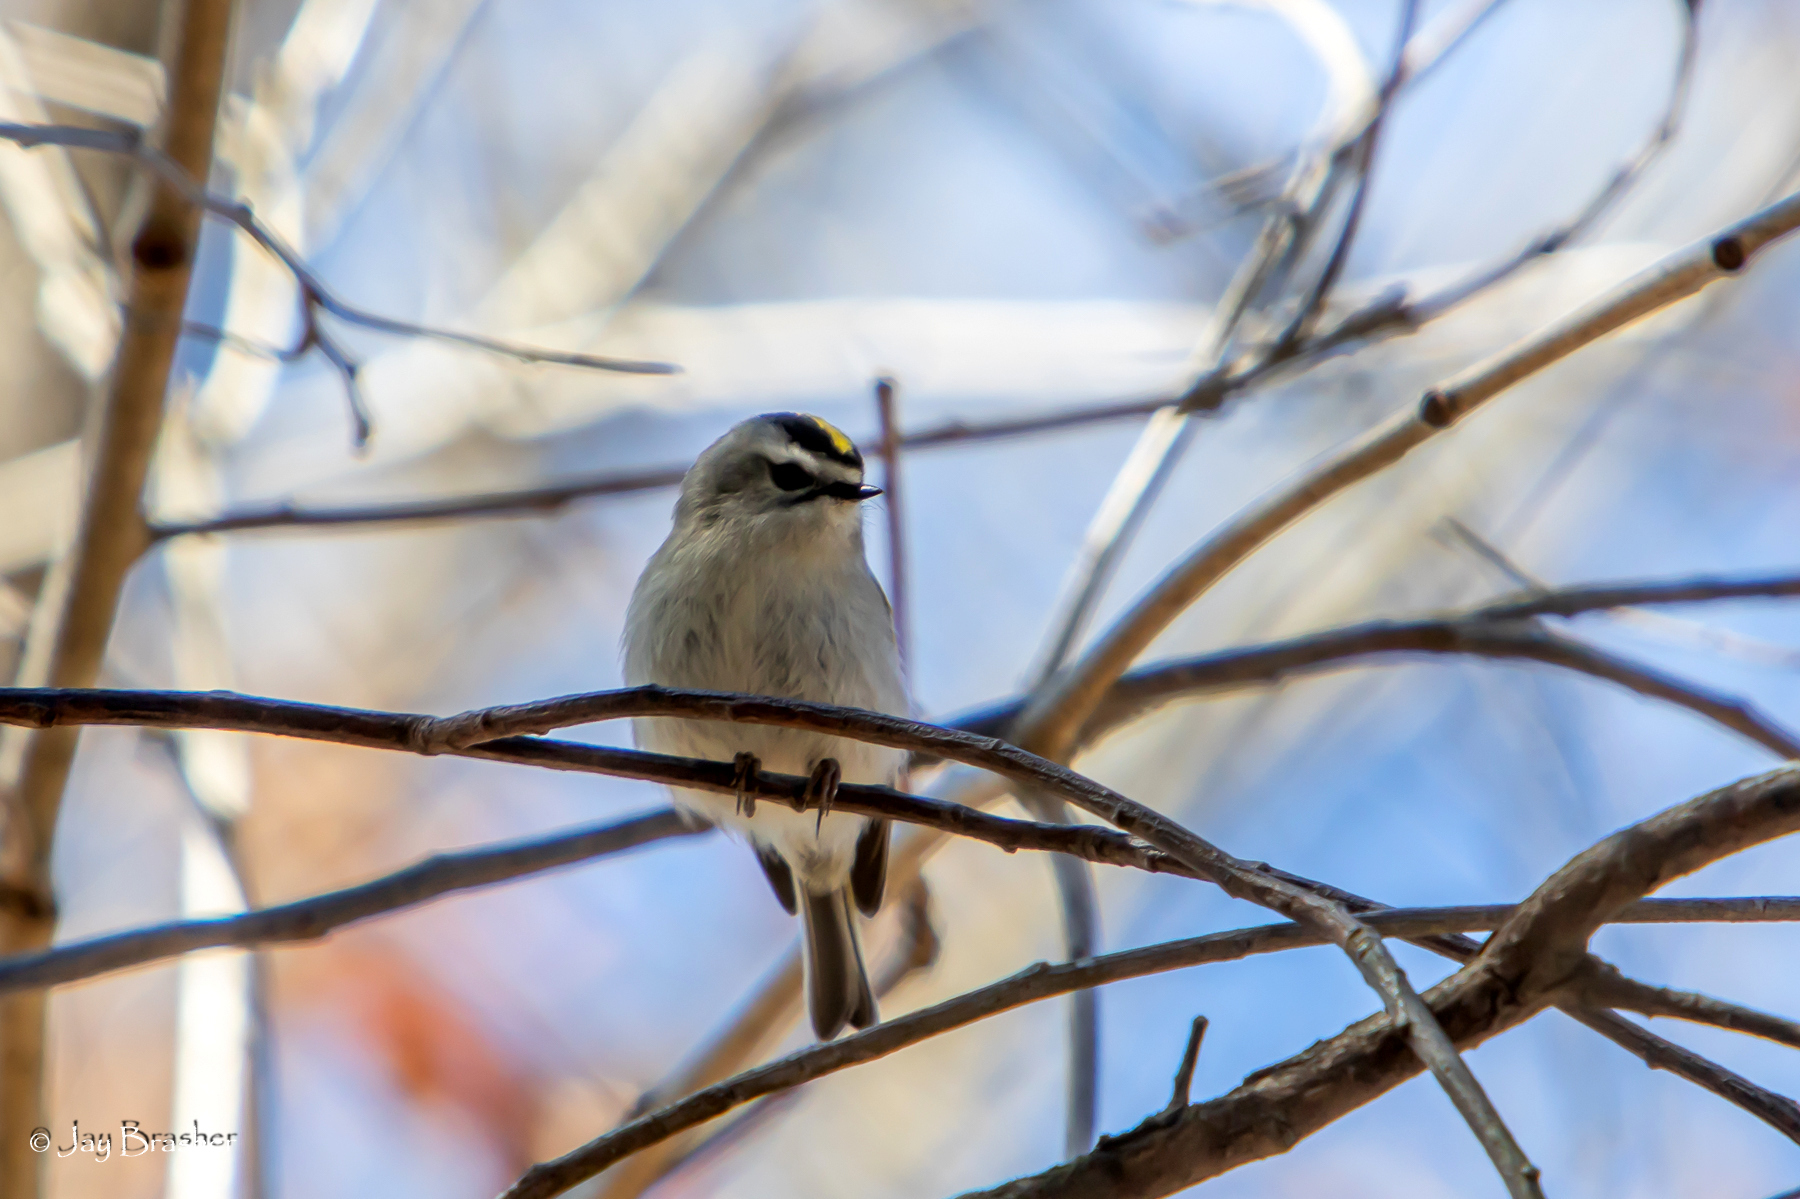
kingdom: Animalia
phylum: Chordata
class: Aves
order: Passeriformes
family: Regulidae
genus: Regulus
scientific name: Regulus satrapa
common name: Golden-crowned kinglet
